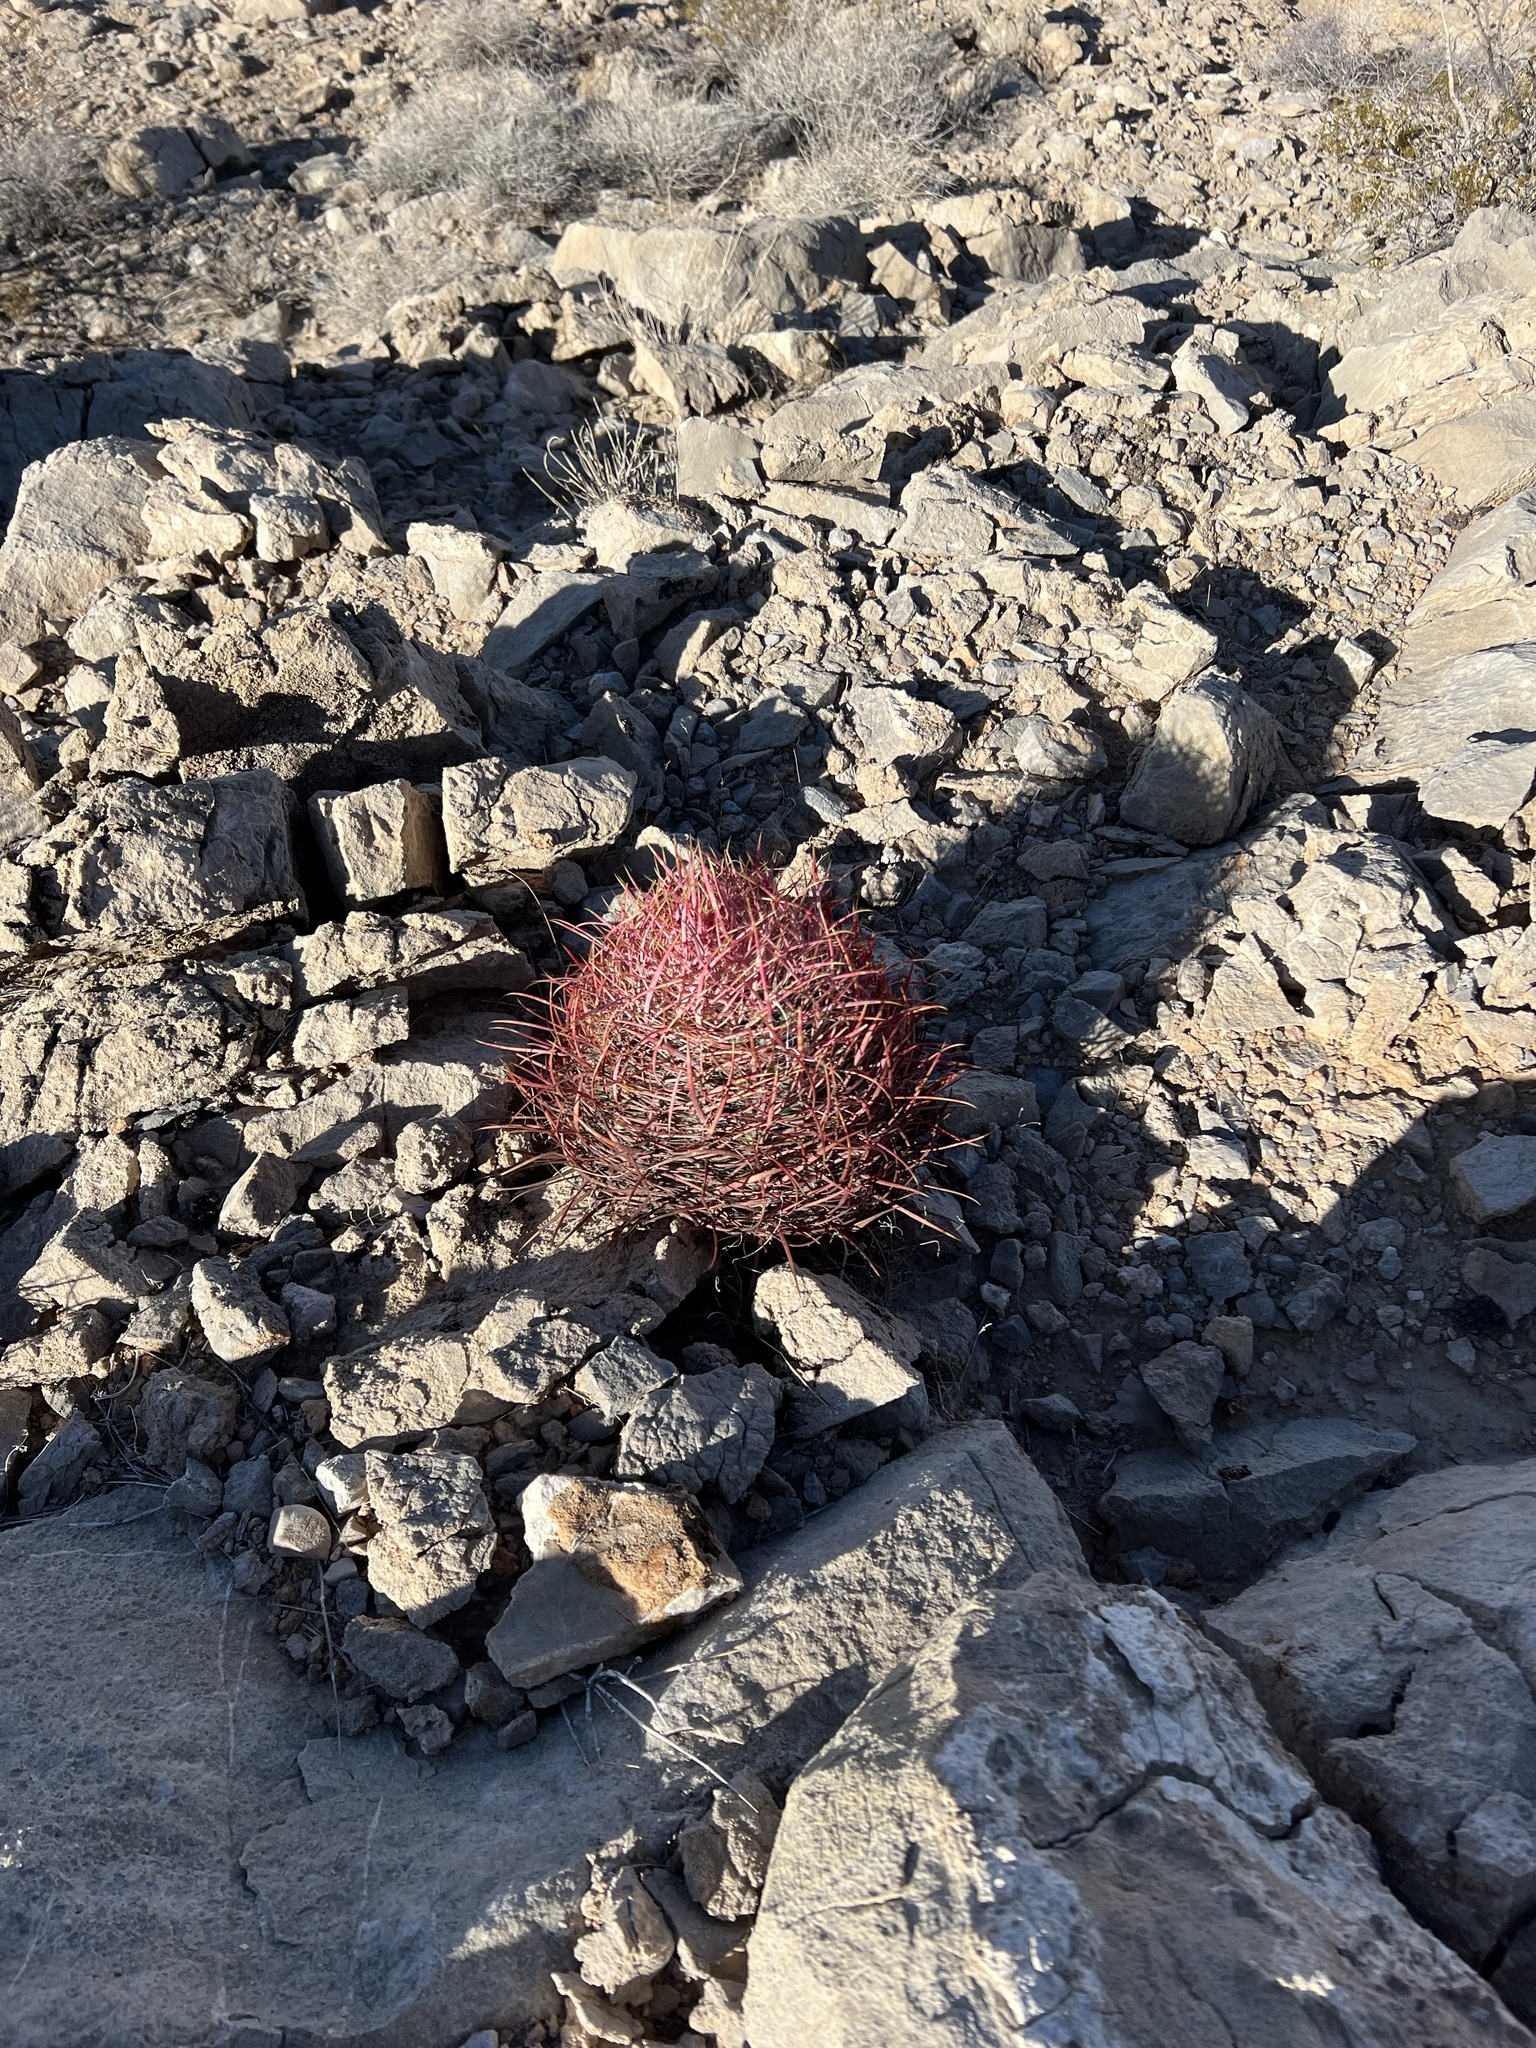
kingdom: Plantae
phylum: Tracheophyta
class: Magnoliopsida
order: Caryophyllales
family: Cactaceae
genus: Ferocactus
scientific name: Ferocactus cylindraceus
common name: California barrel cactus
